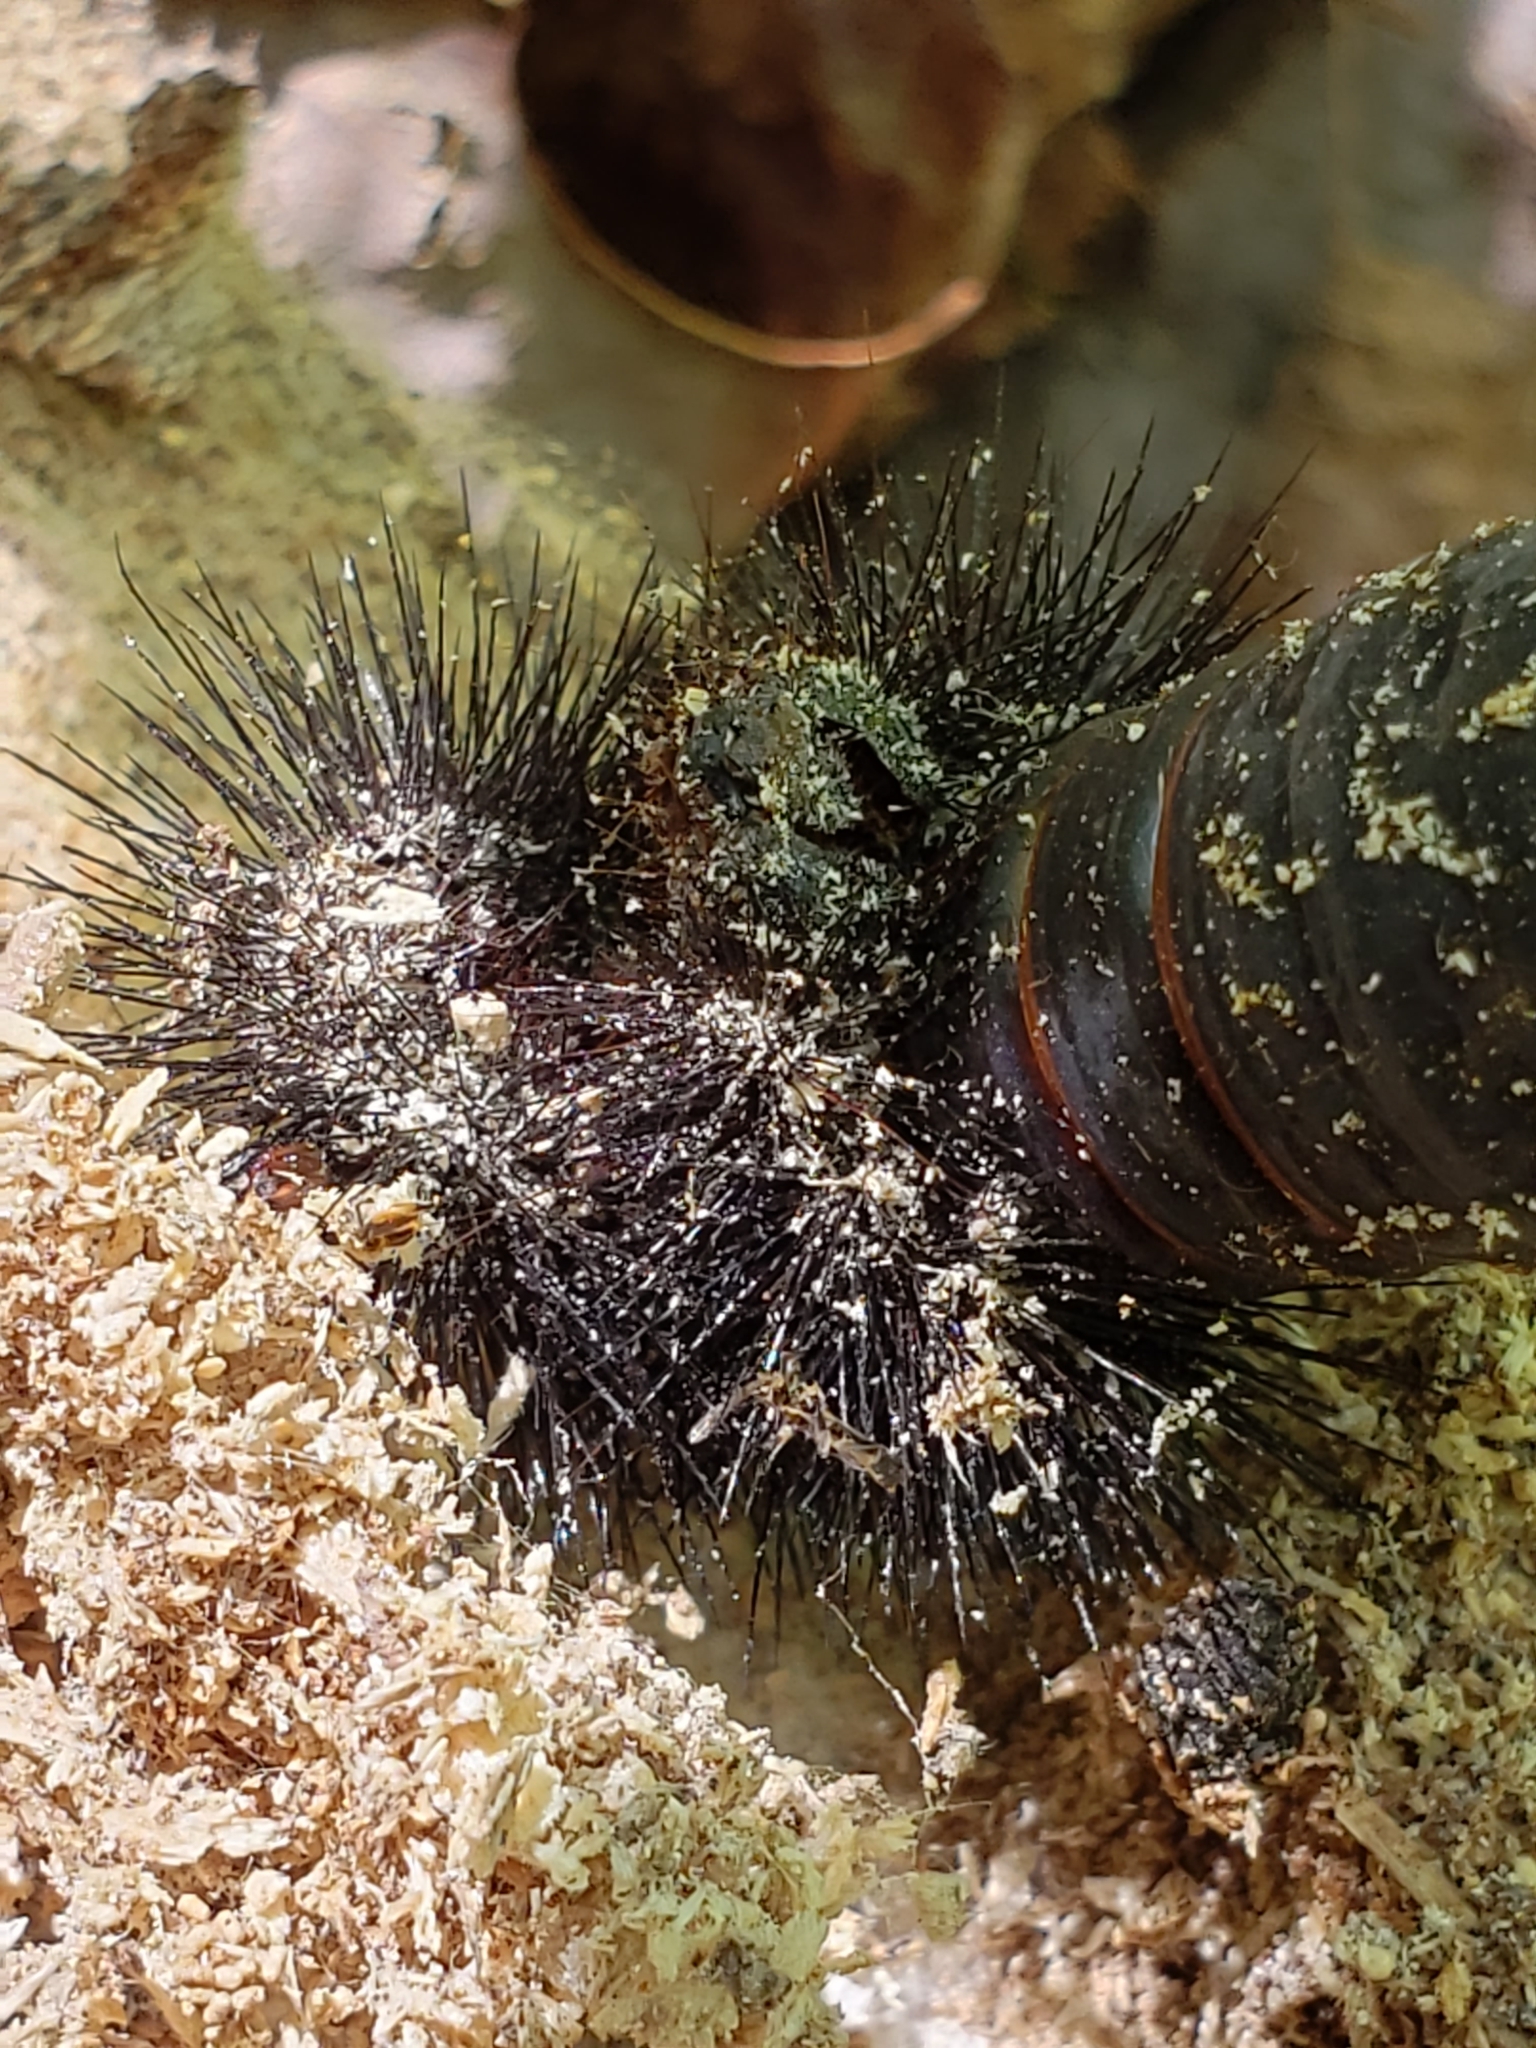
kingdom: Animalia
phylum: Arthropoda
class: Insecta
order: Lepidoptera
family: Erebidae
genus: Hypercompe
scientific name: Hypercompe scribonia
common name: Giant leopard moth
